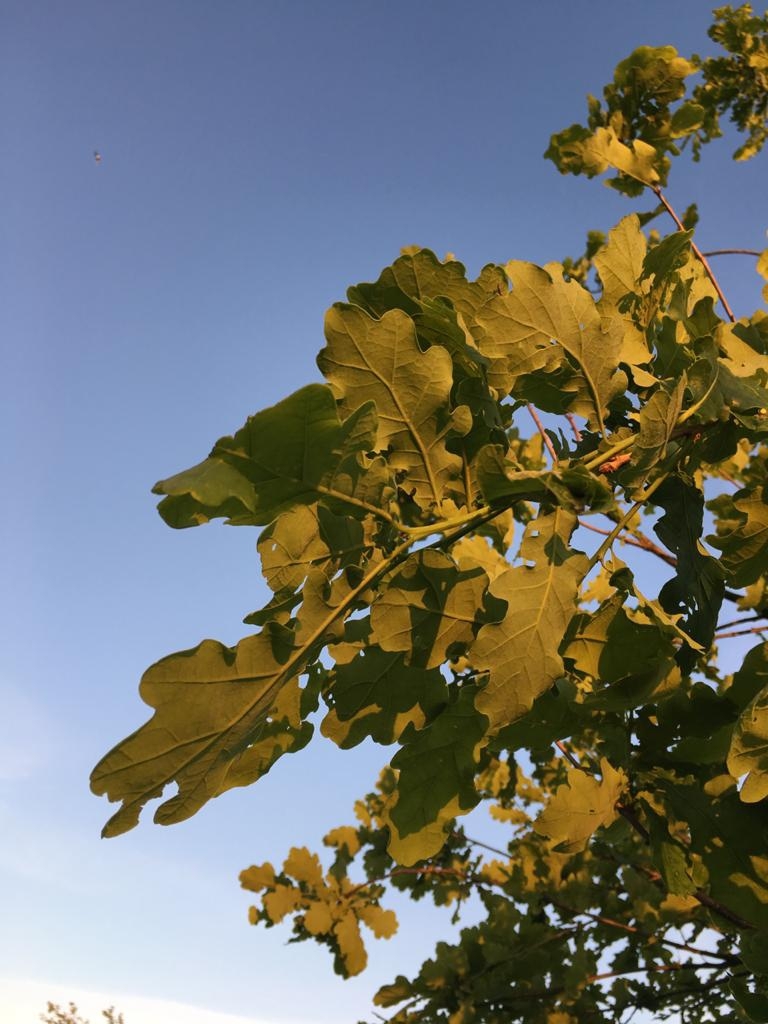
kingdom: Plantae
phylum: Tracheophyta
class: Magnoliopsida
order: Fagales
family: Fagaceae
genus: Quercus
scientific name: Quercus robur
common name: Pedunculate oak
